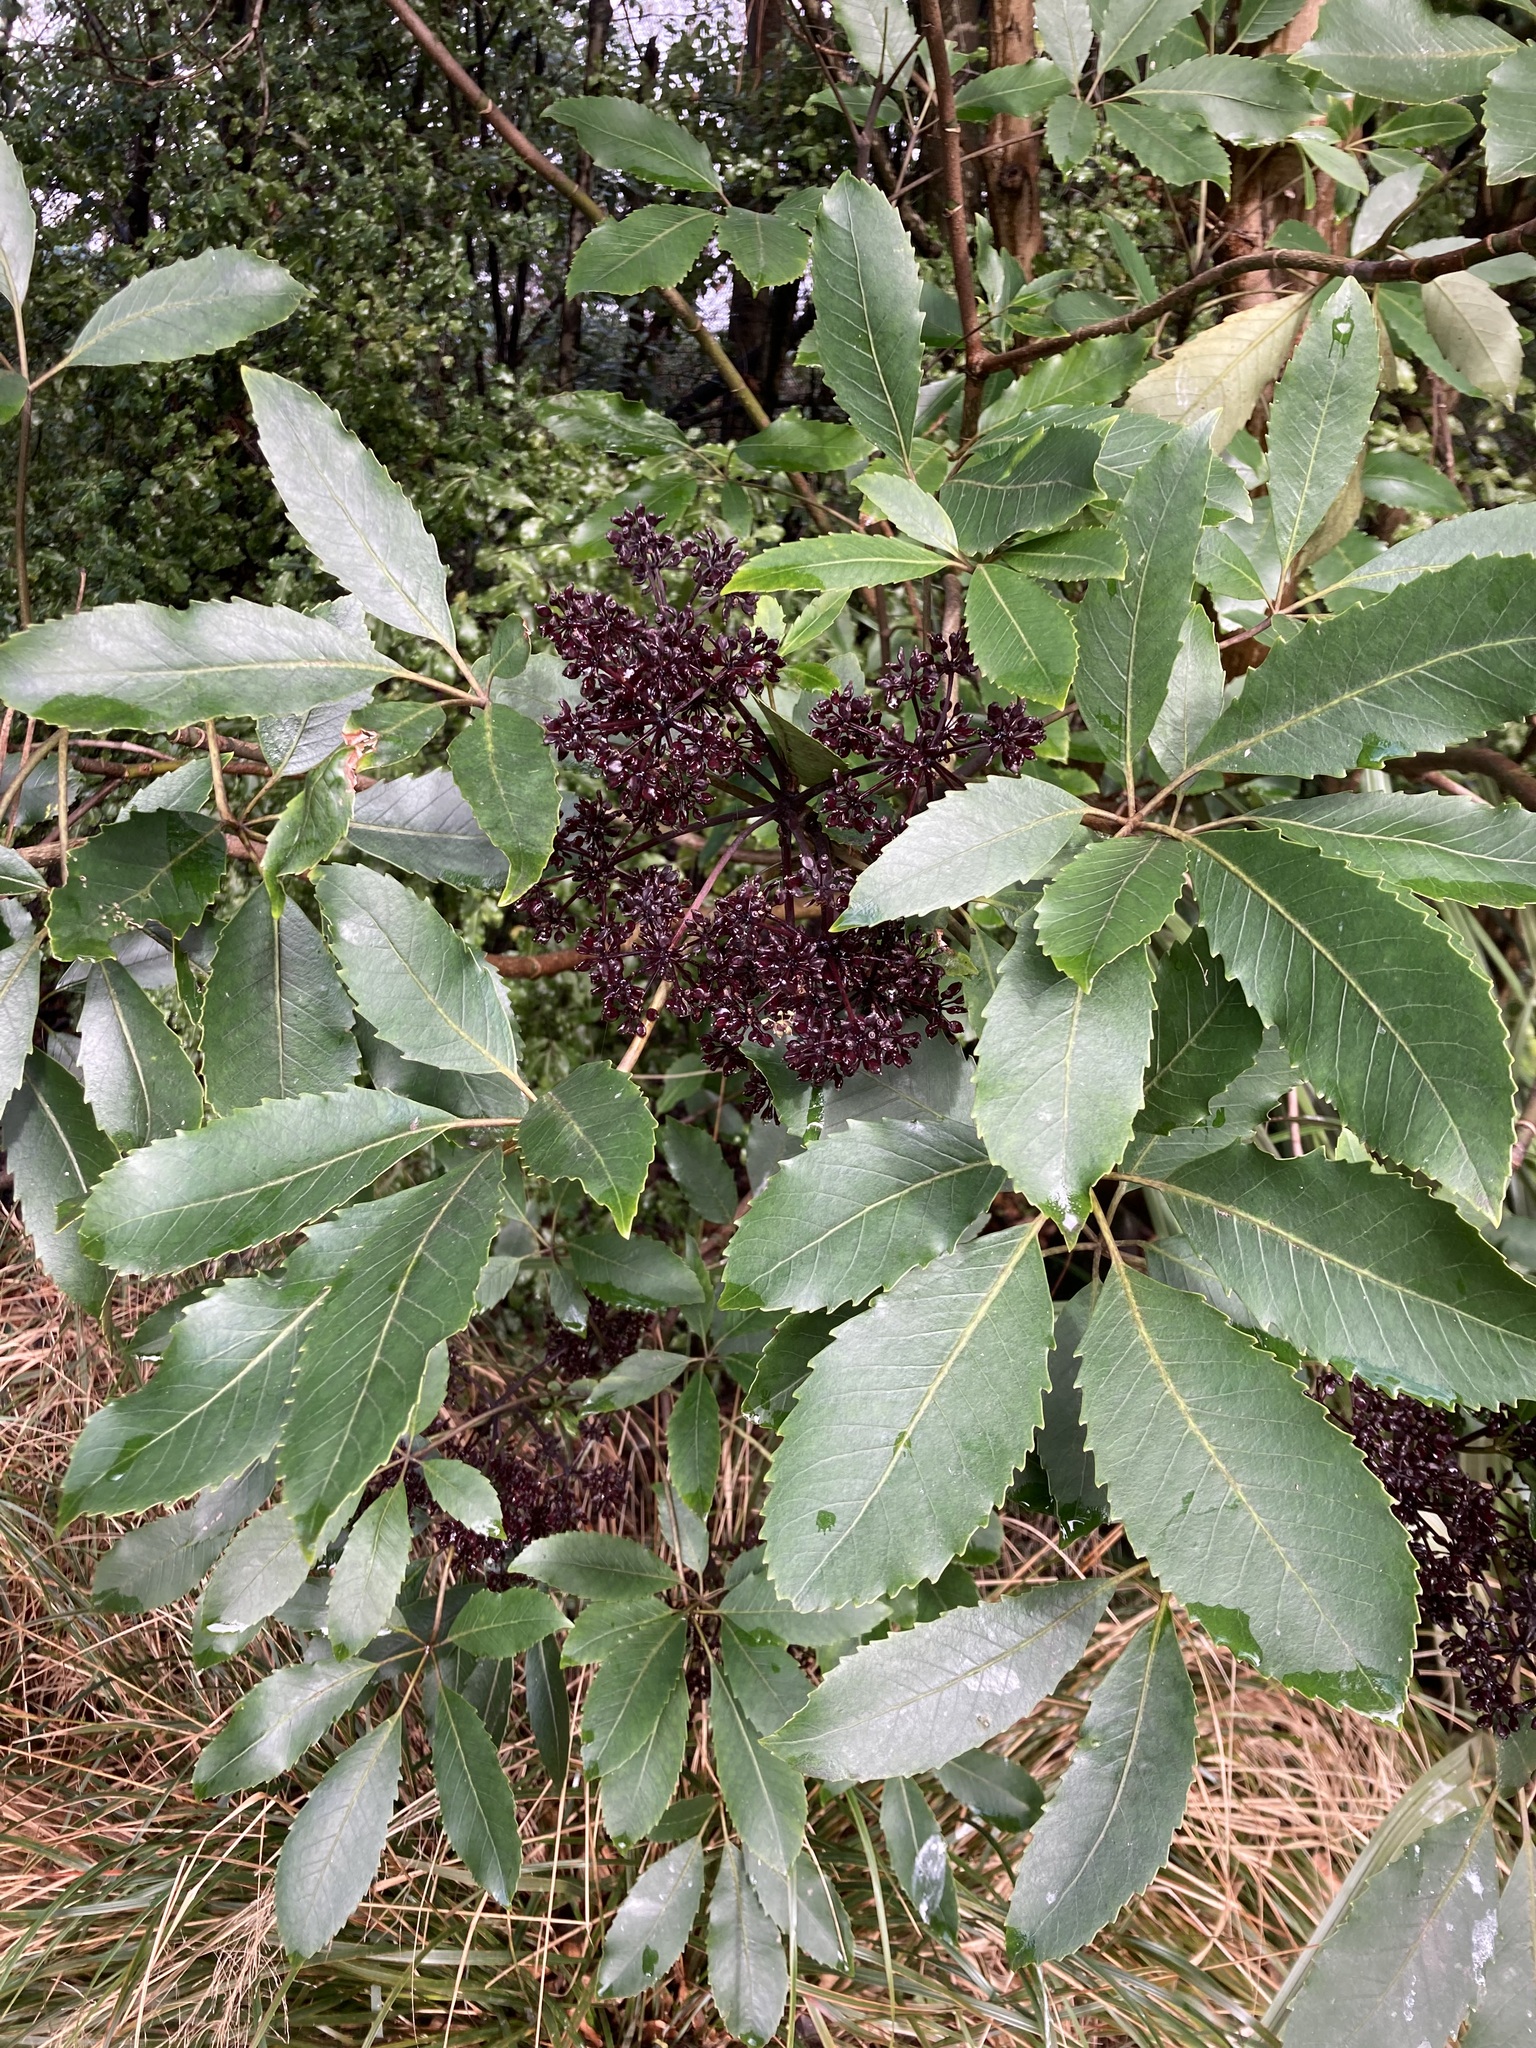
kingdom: Plantae
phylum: Tracheophyta
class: Magnoliopsida
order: Apiales
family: Araliaceae
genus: Neopanax
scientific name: Neopanax arboreus
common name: Five-fingers
